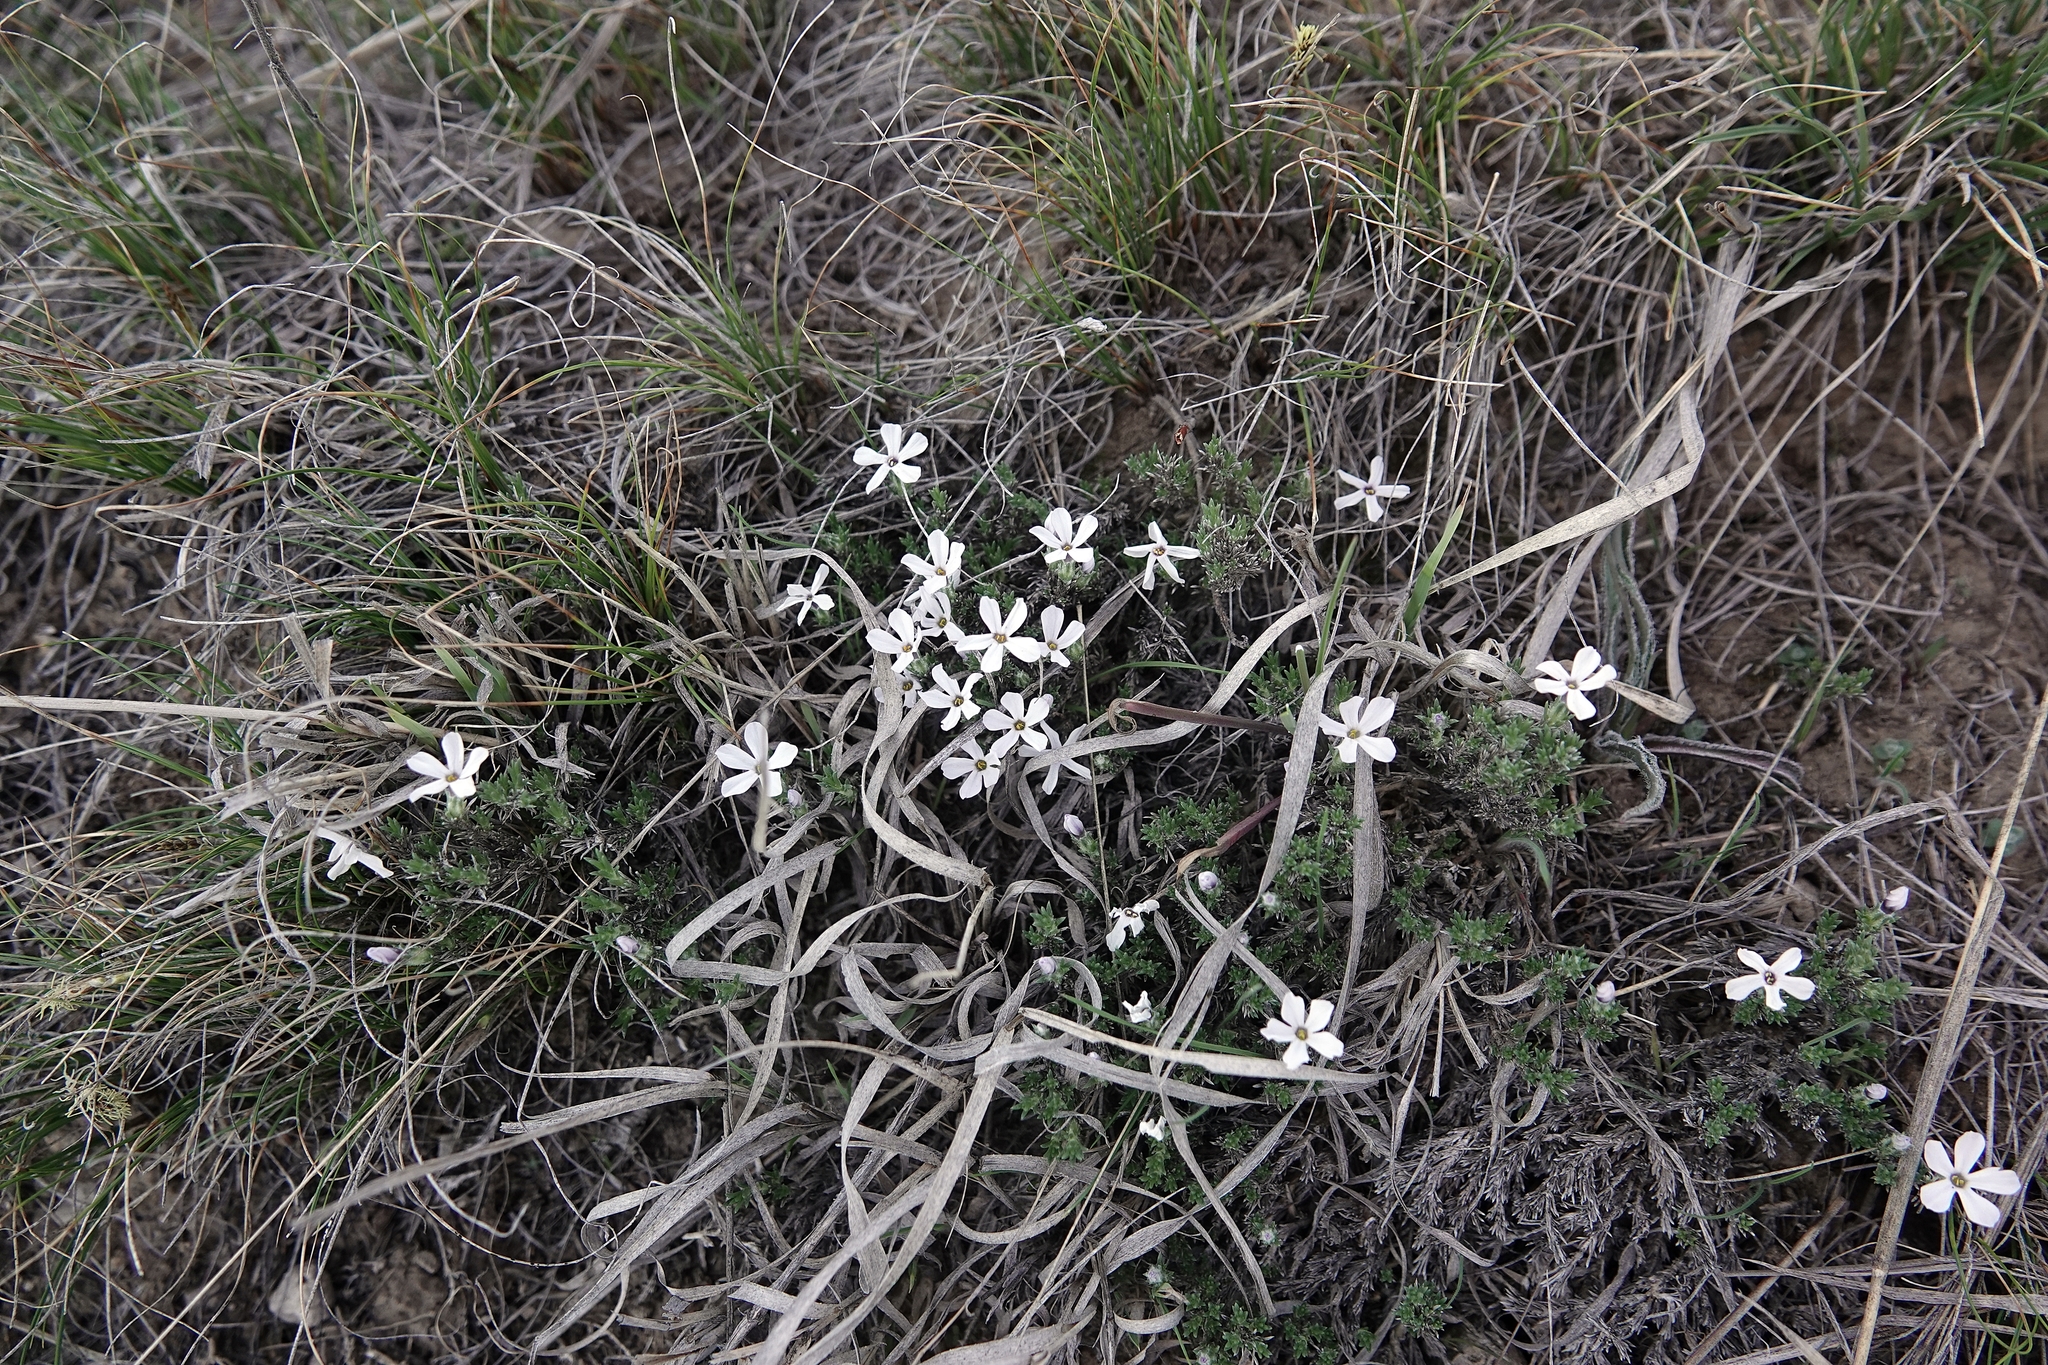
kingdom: Plantae
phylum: Tracheophyta
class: Magnoliopsida
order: Ericales
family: Polemoniaceae
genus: Phlox
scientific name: Phlox hoodii
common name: Moss phlox
